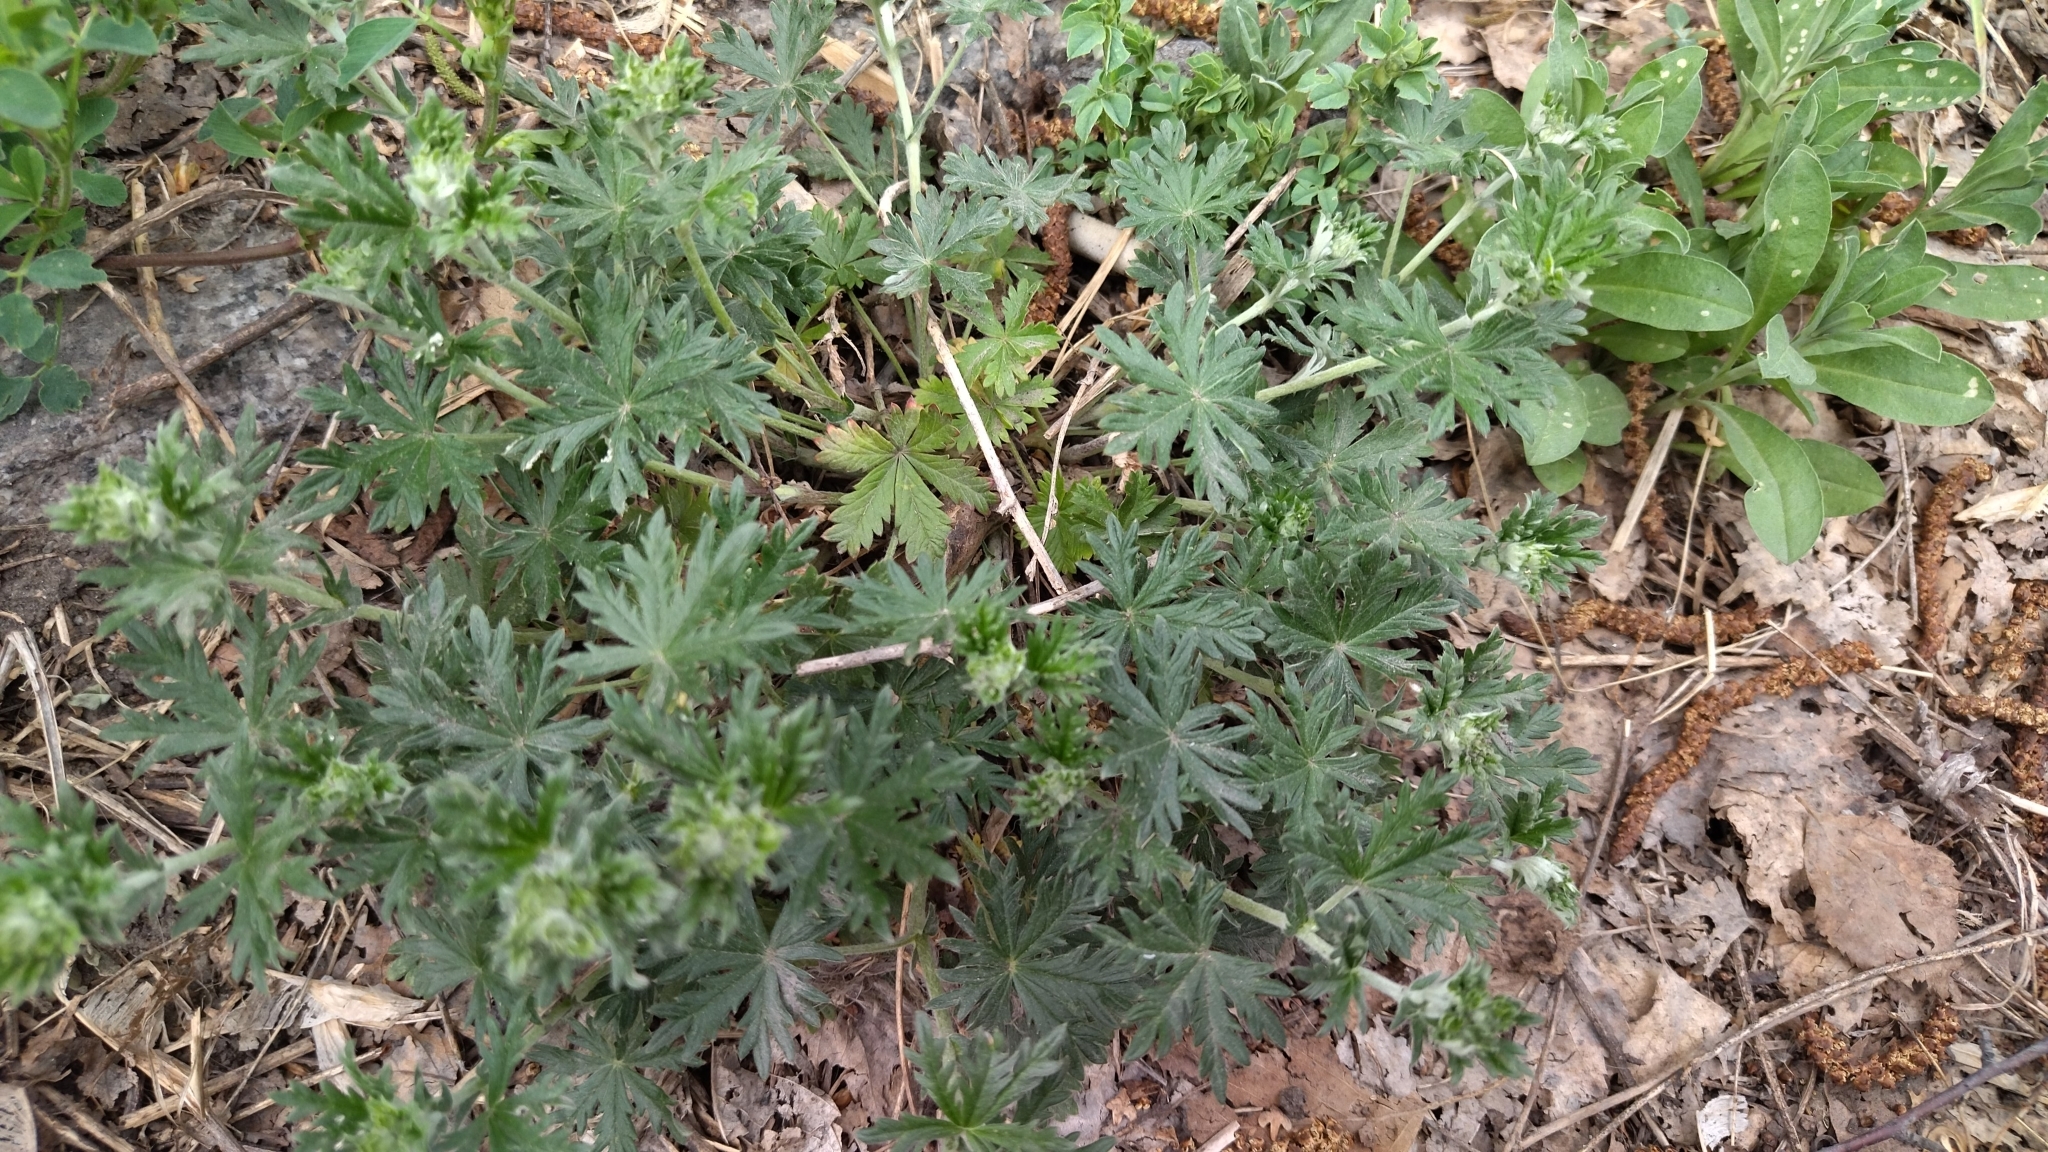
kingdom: Plantae
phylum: Tracheophyta
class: Magnoliopsida
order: Rosales
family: Rosaceae
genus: Potentilla
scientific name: Potentilla argentea
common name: Hoary cinquefoil
